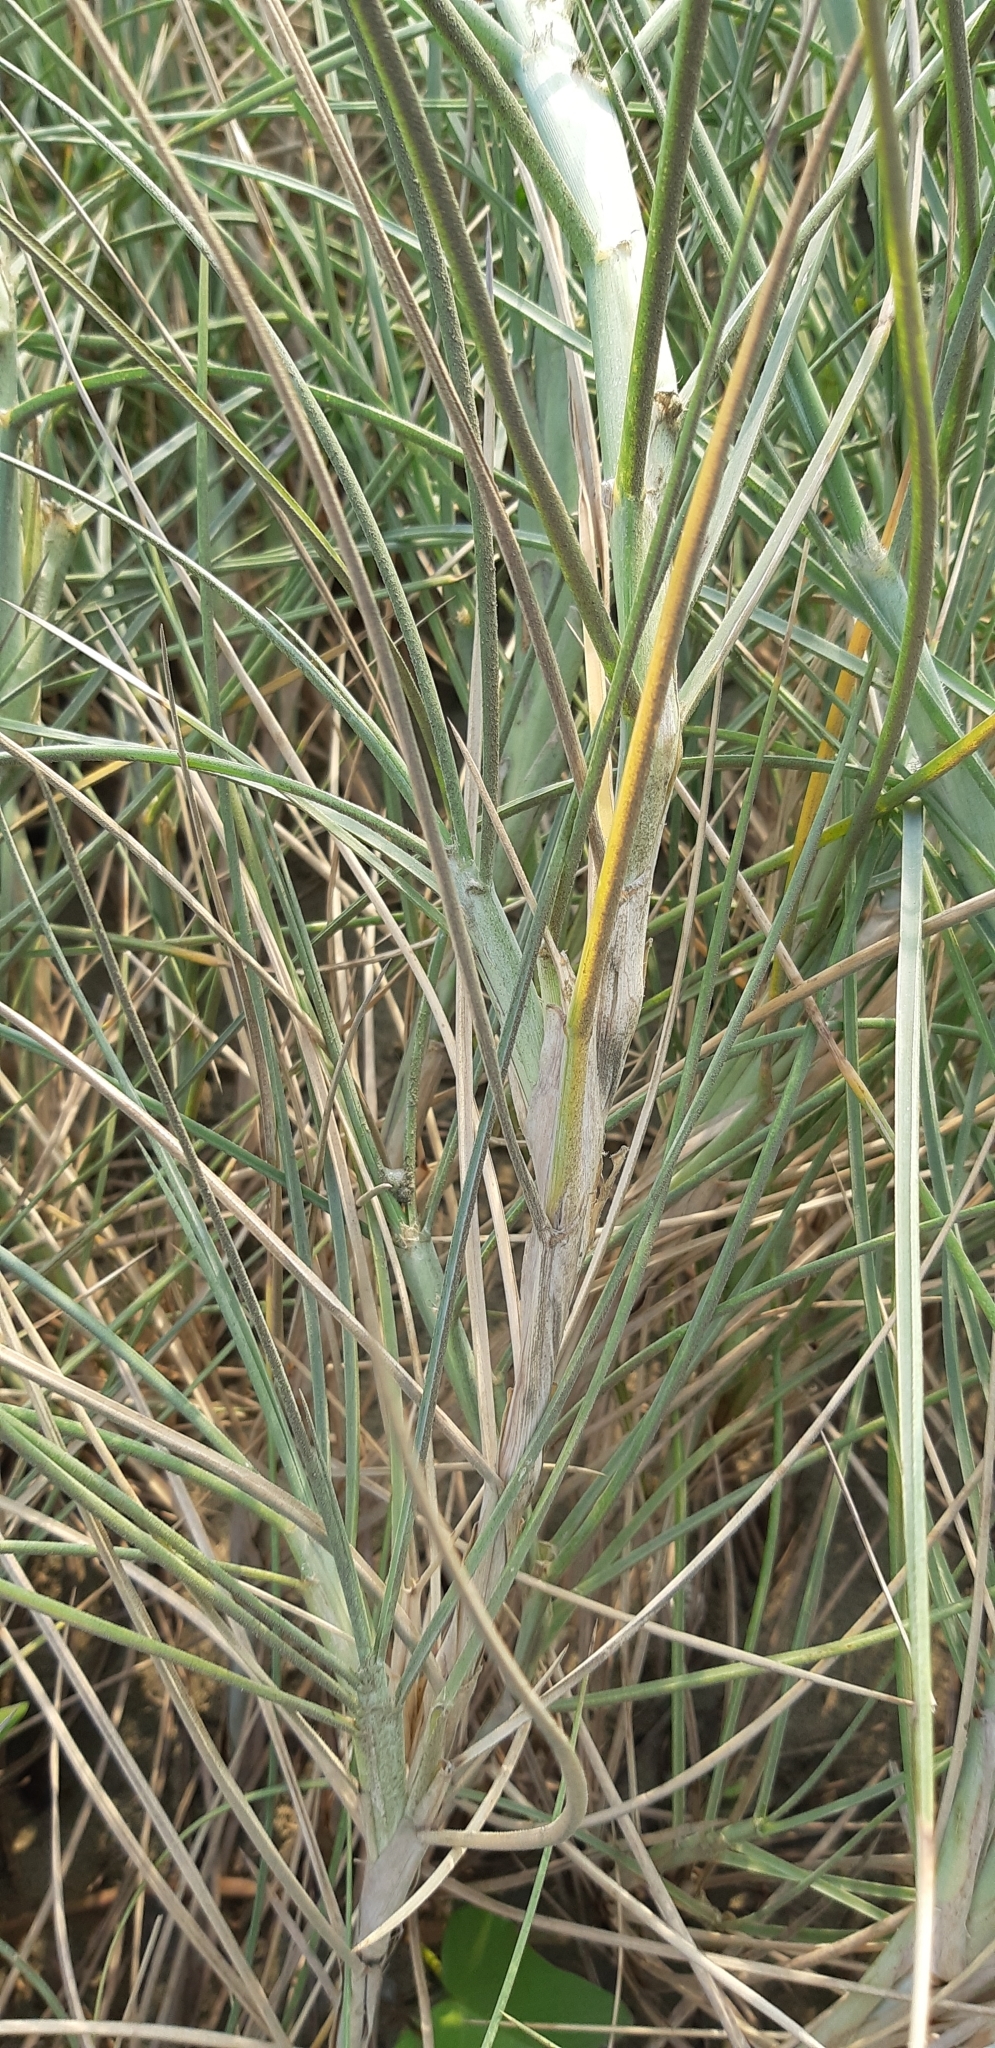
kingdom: Plantae
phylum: Tracheophyta
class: Liliopsida
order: Poales
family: Poaceae
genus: Spinifex
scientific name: Spinifex littoreus
